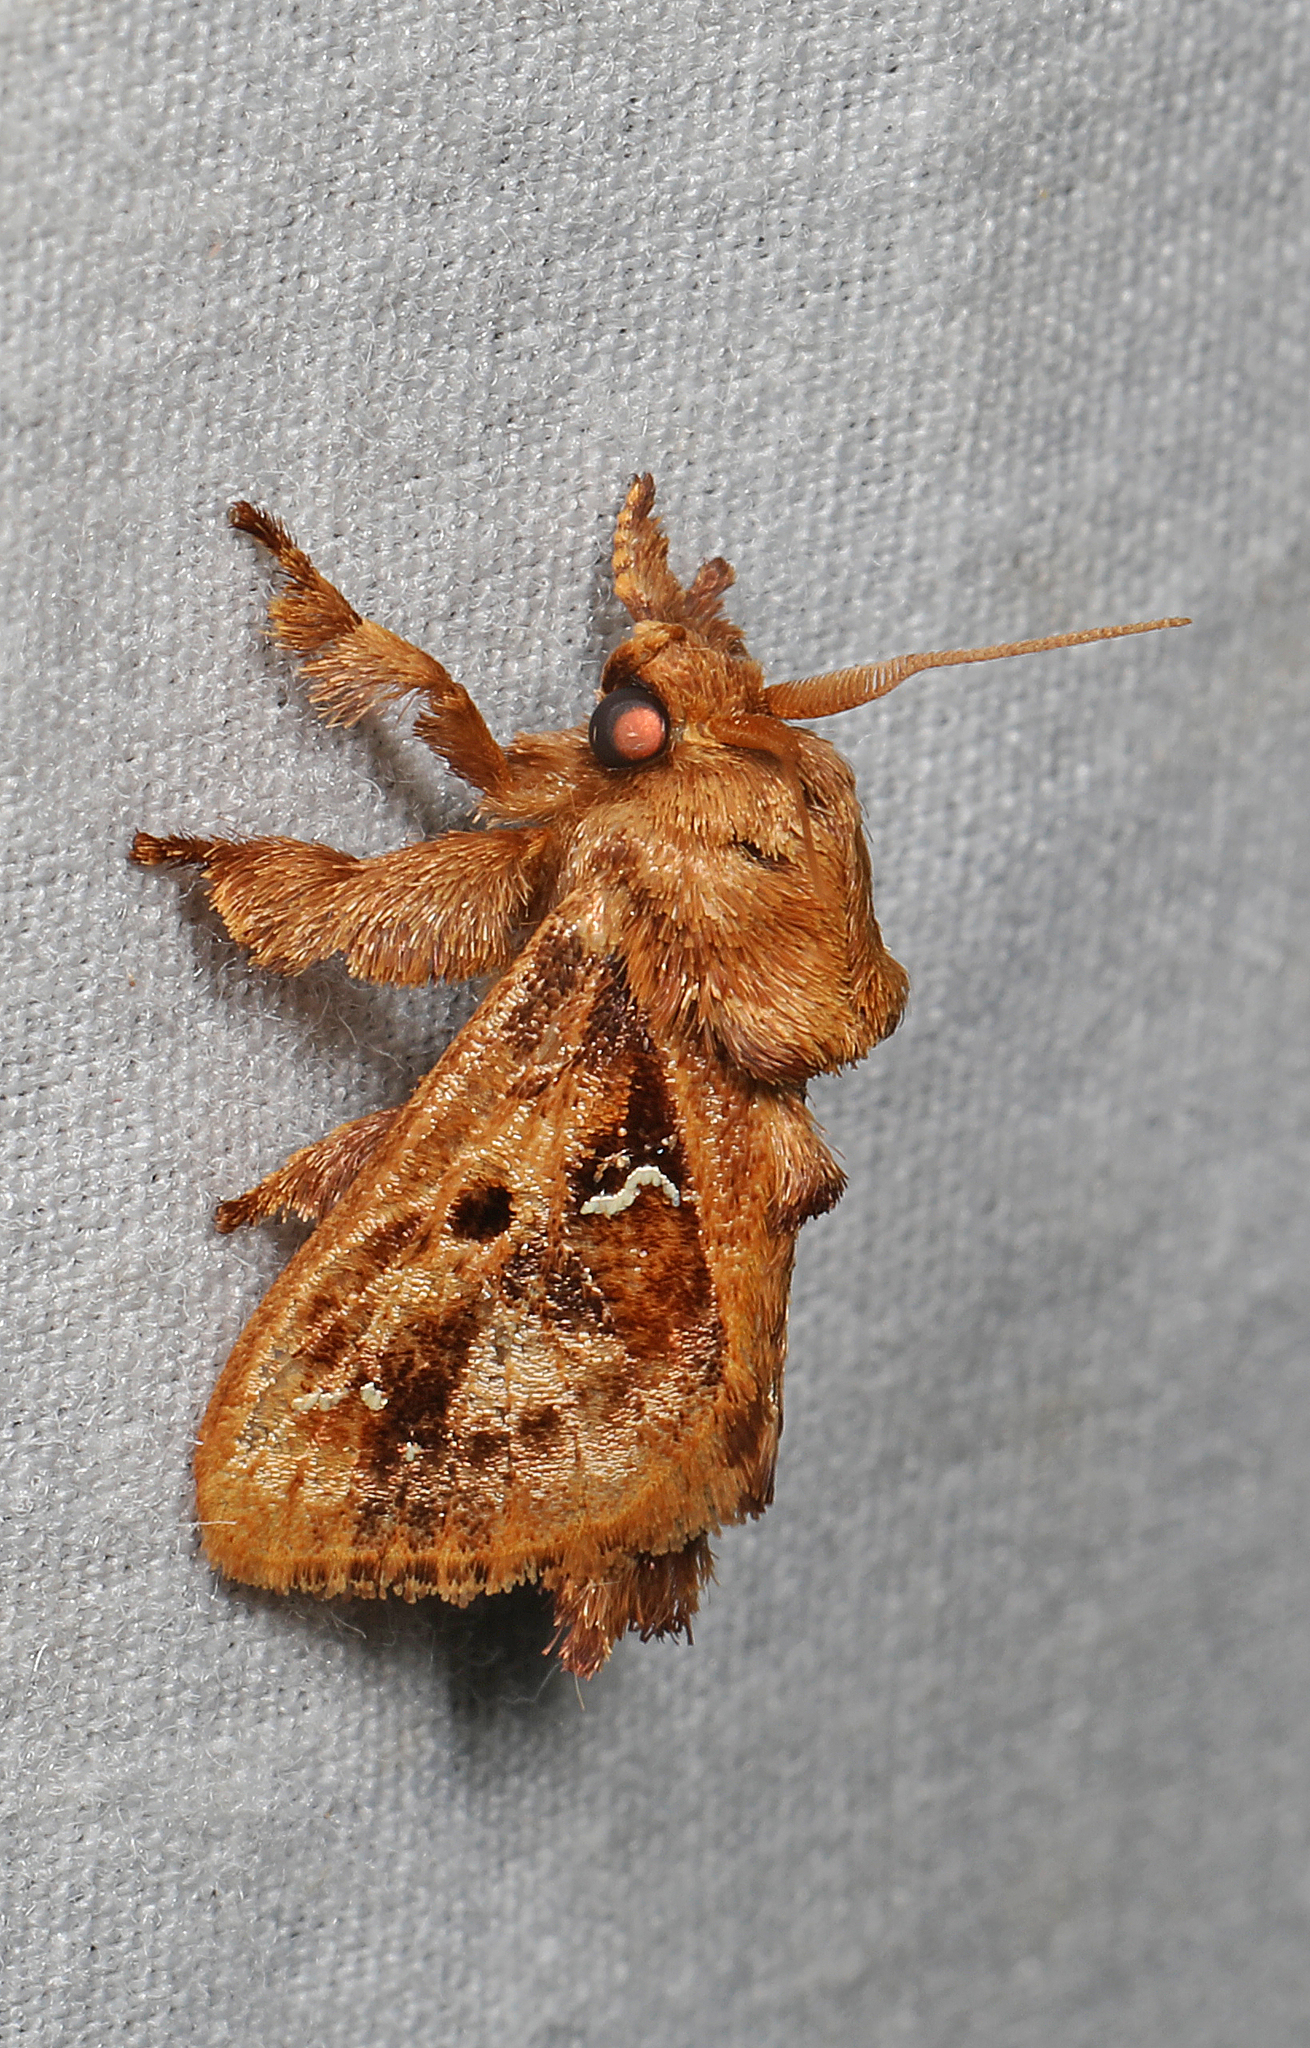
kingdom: Animalia
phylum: Arthropoda
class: Insecta
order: Lepidoptera
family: Limacodidae
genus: Euclea
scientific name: Euclea buscki
